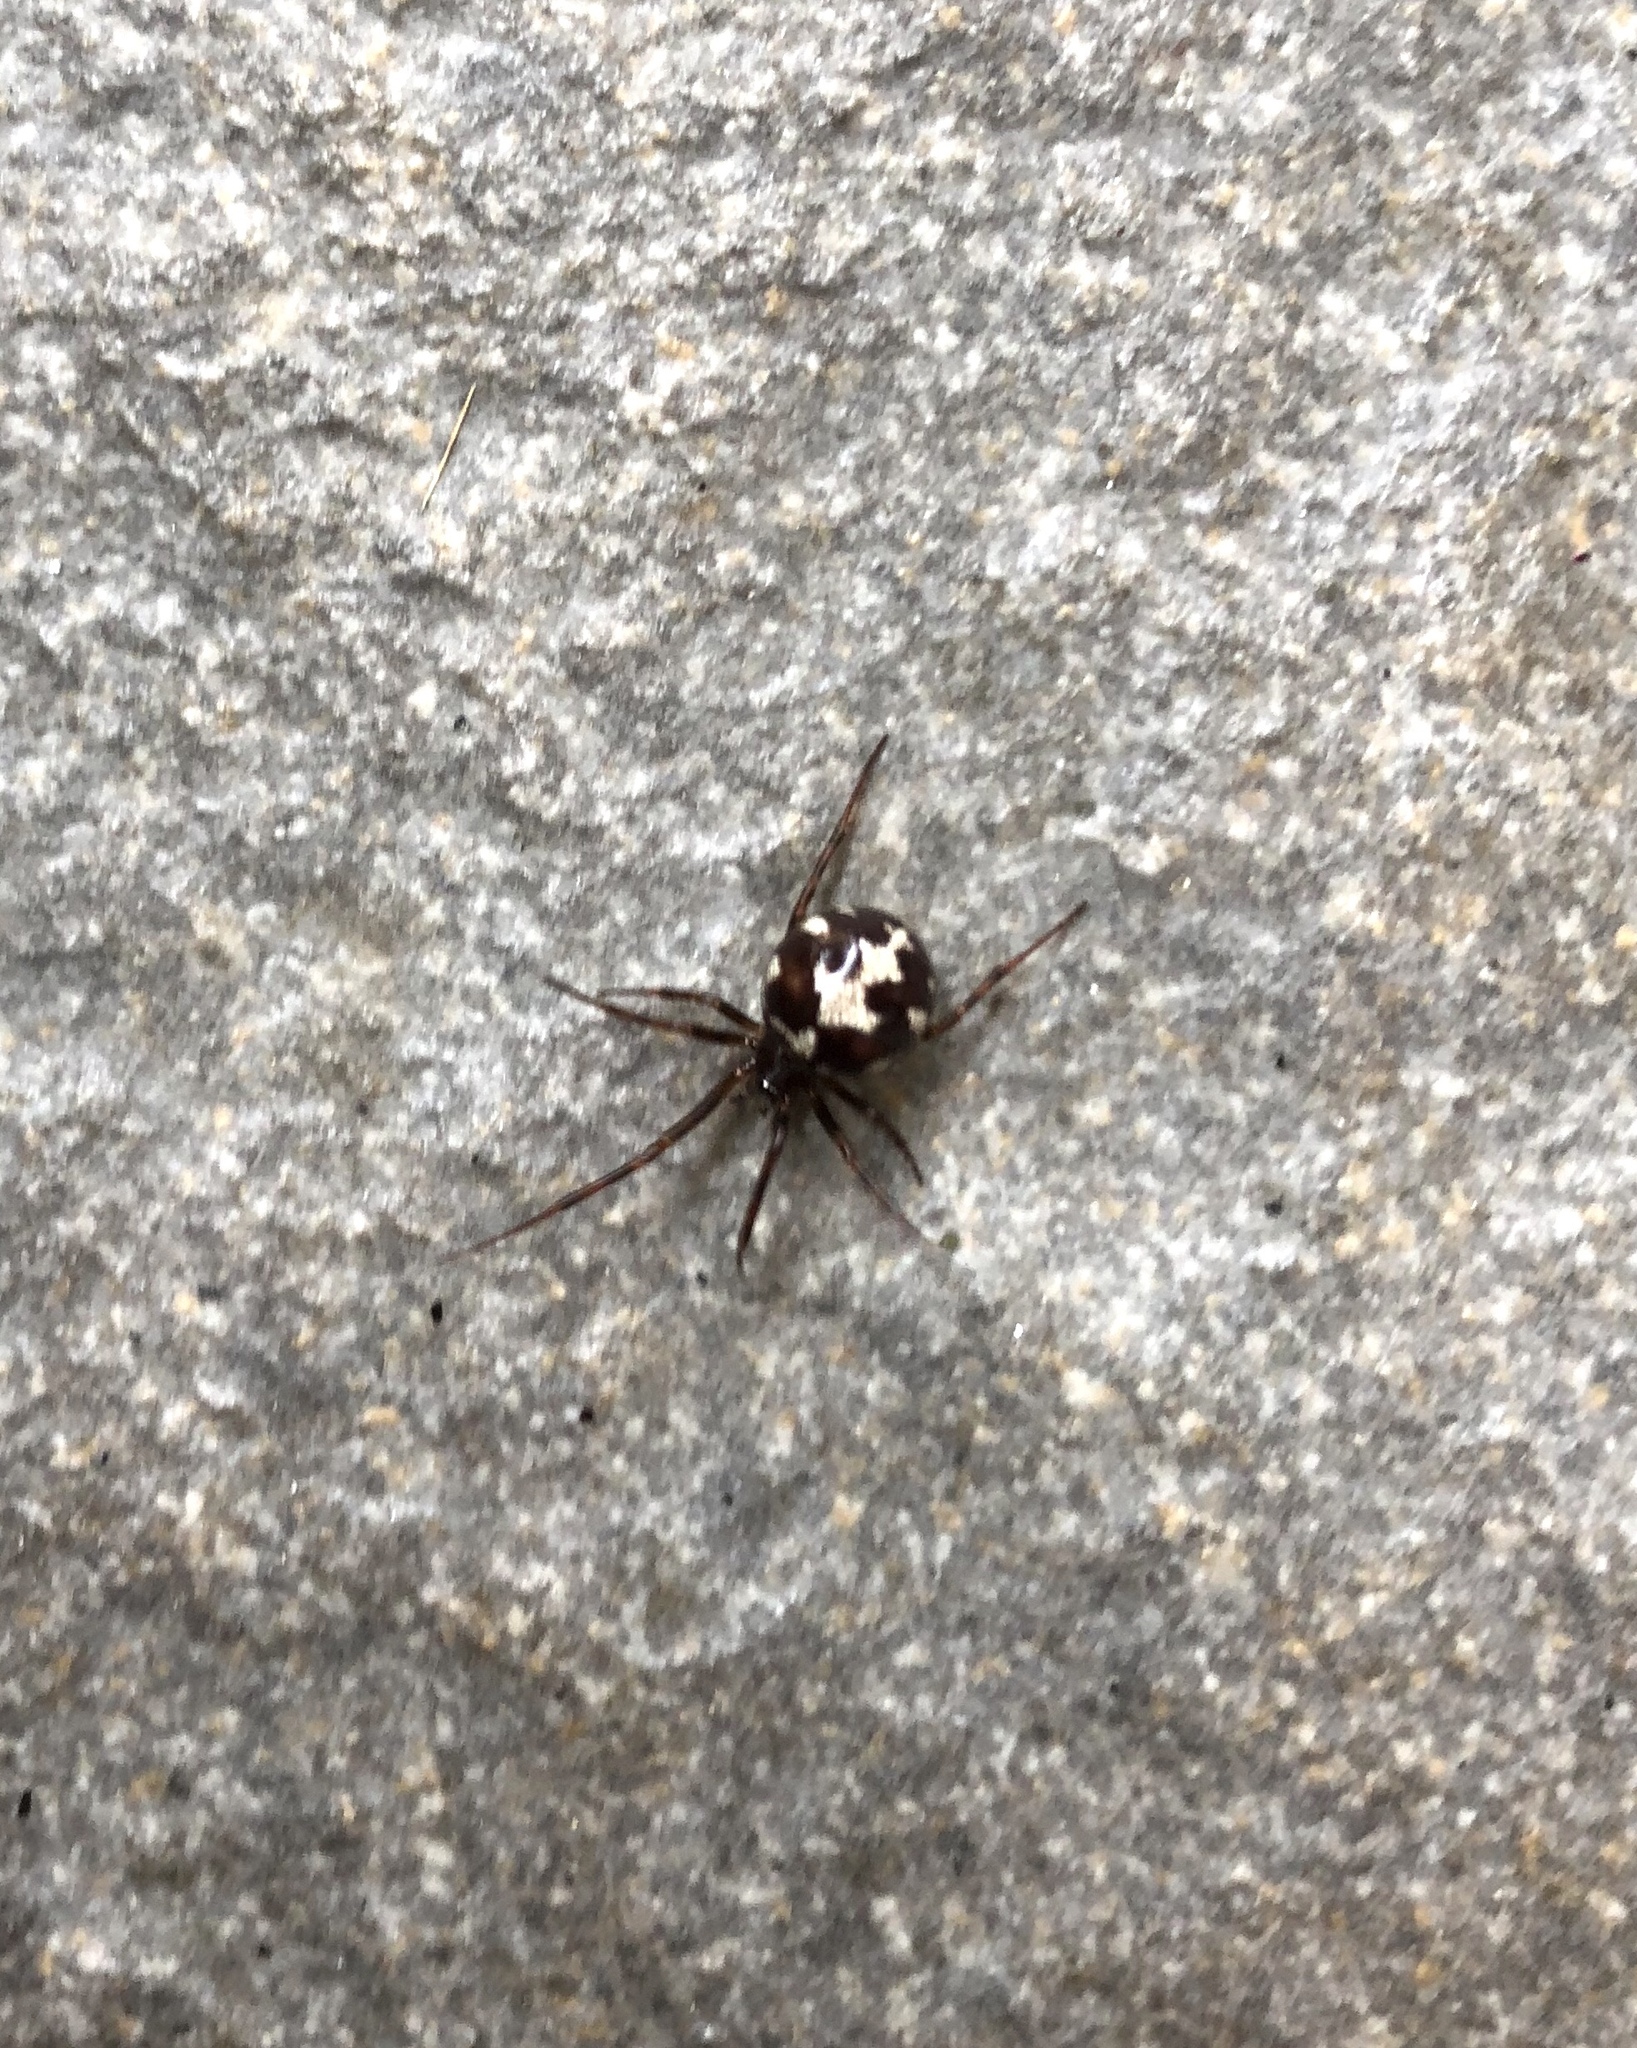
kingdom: Animalia
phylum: Arthropoda
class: Arachnida
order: Araneae
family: Theridiidae
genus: Steatoda
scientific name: Steatoda triangulosa
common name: Triangulate bud spider
